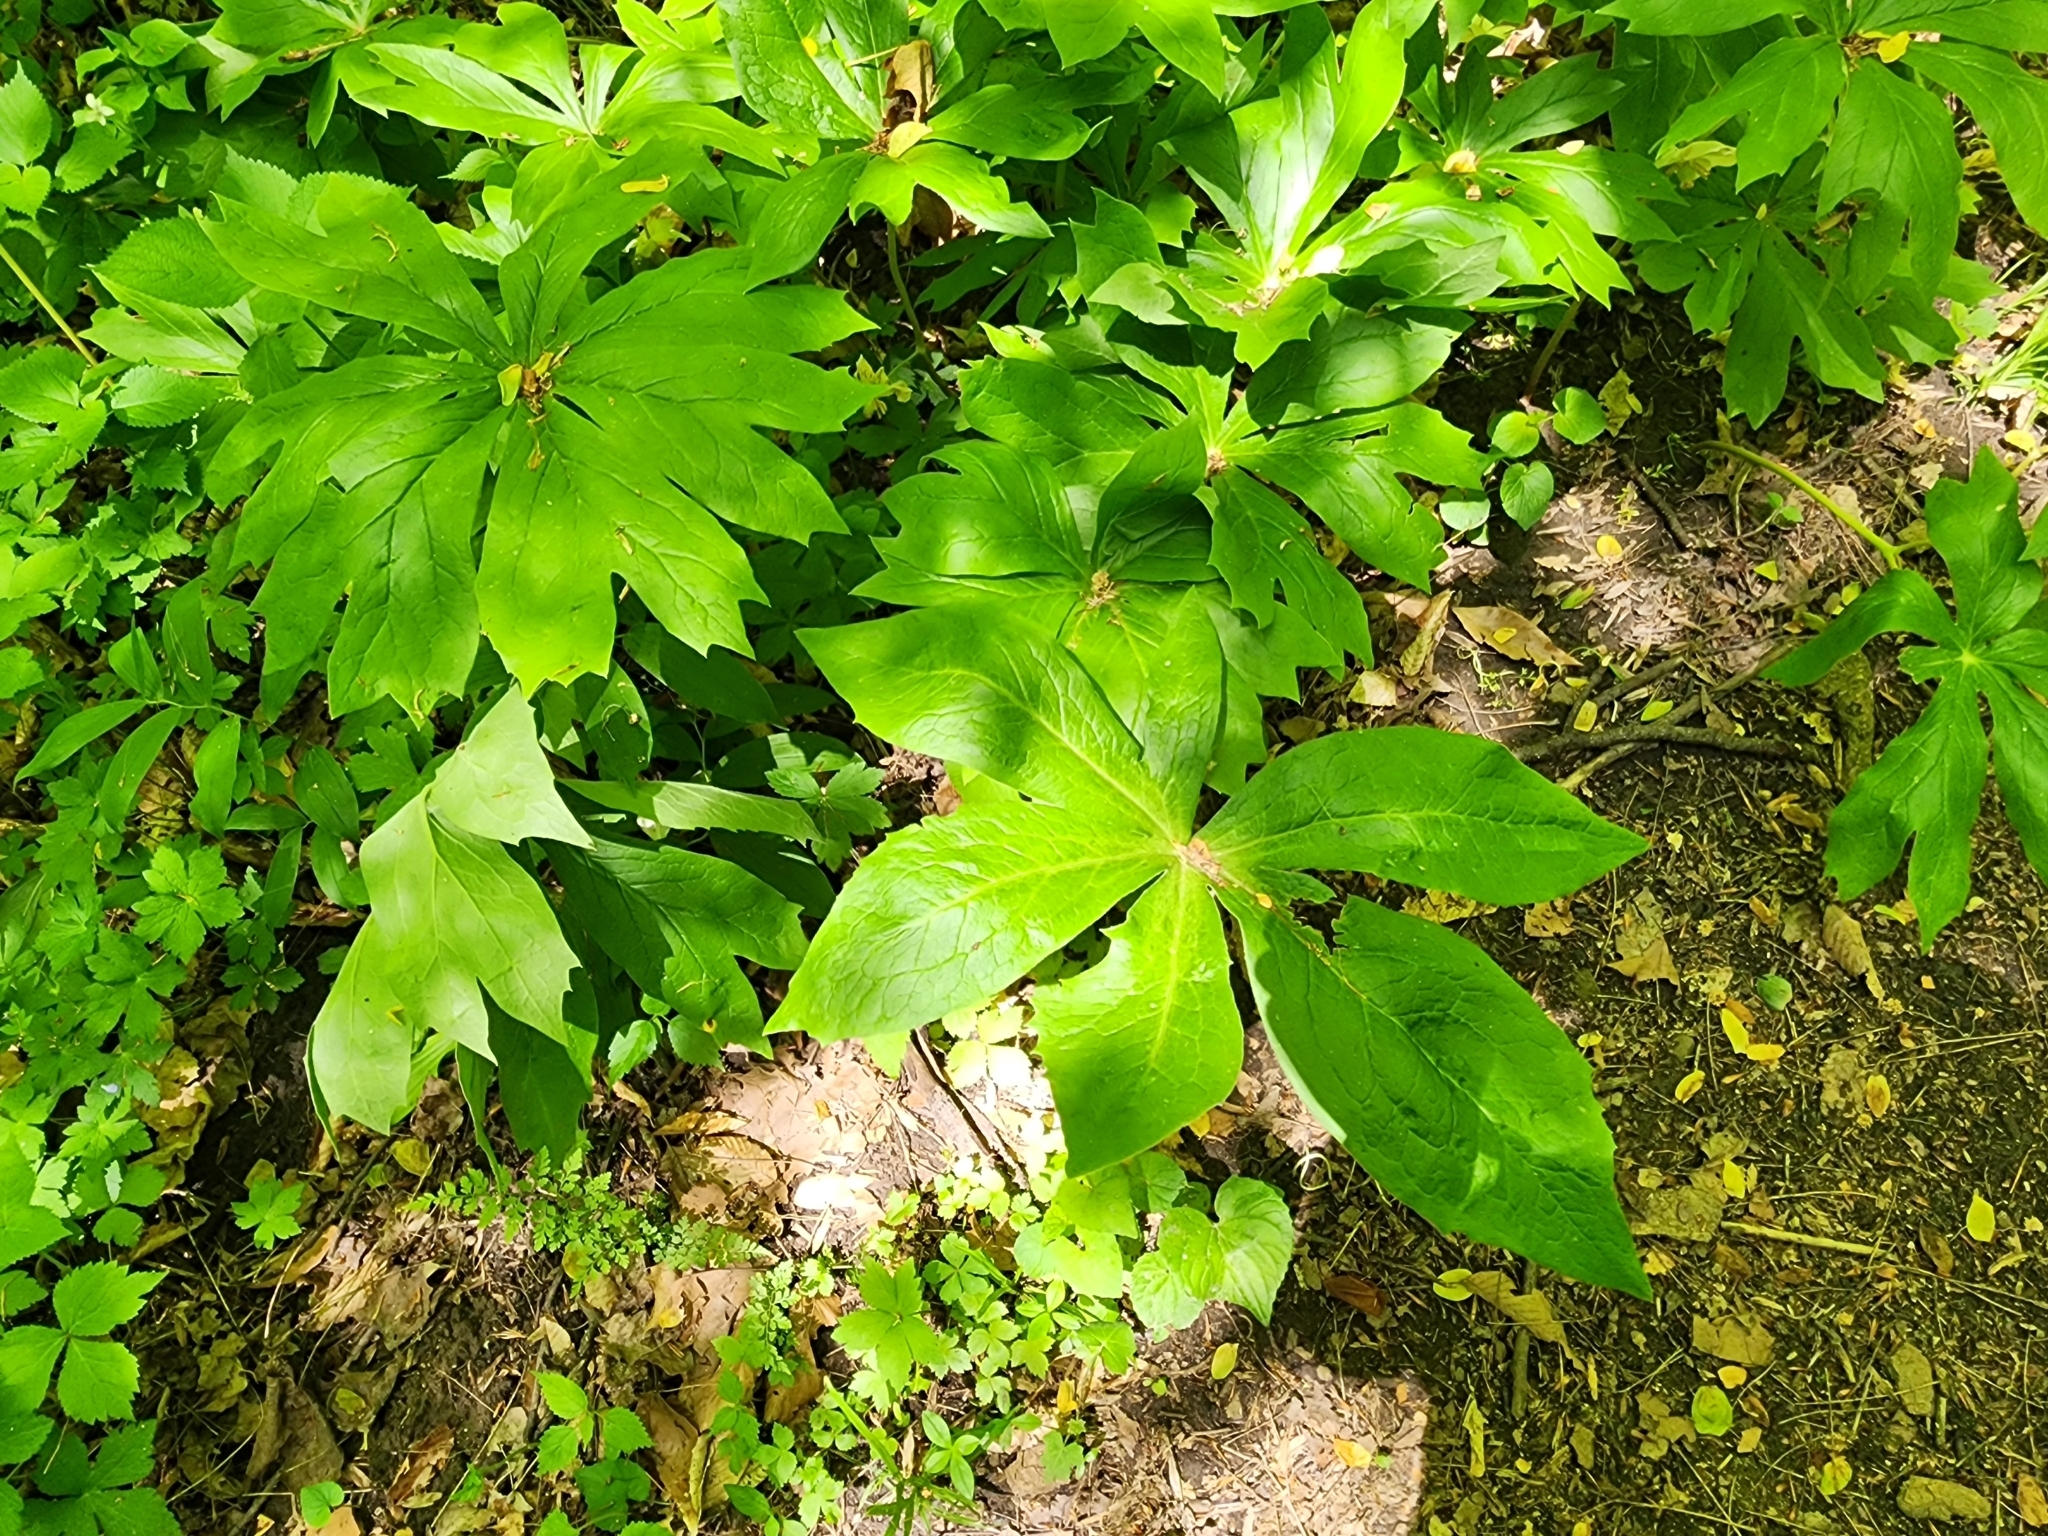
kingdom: Plantae
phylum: Tracheophyta
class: Magnoliopsida
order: Ranunculales
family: Berberidaceae
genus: Podophyllum
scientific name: Podophyllum peltatum
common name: Wild mandrake
